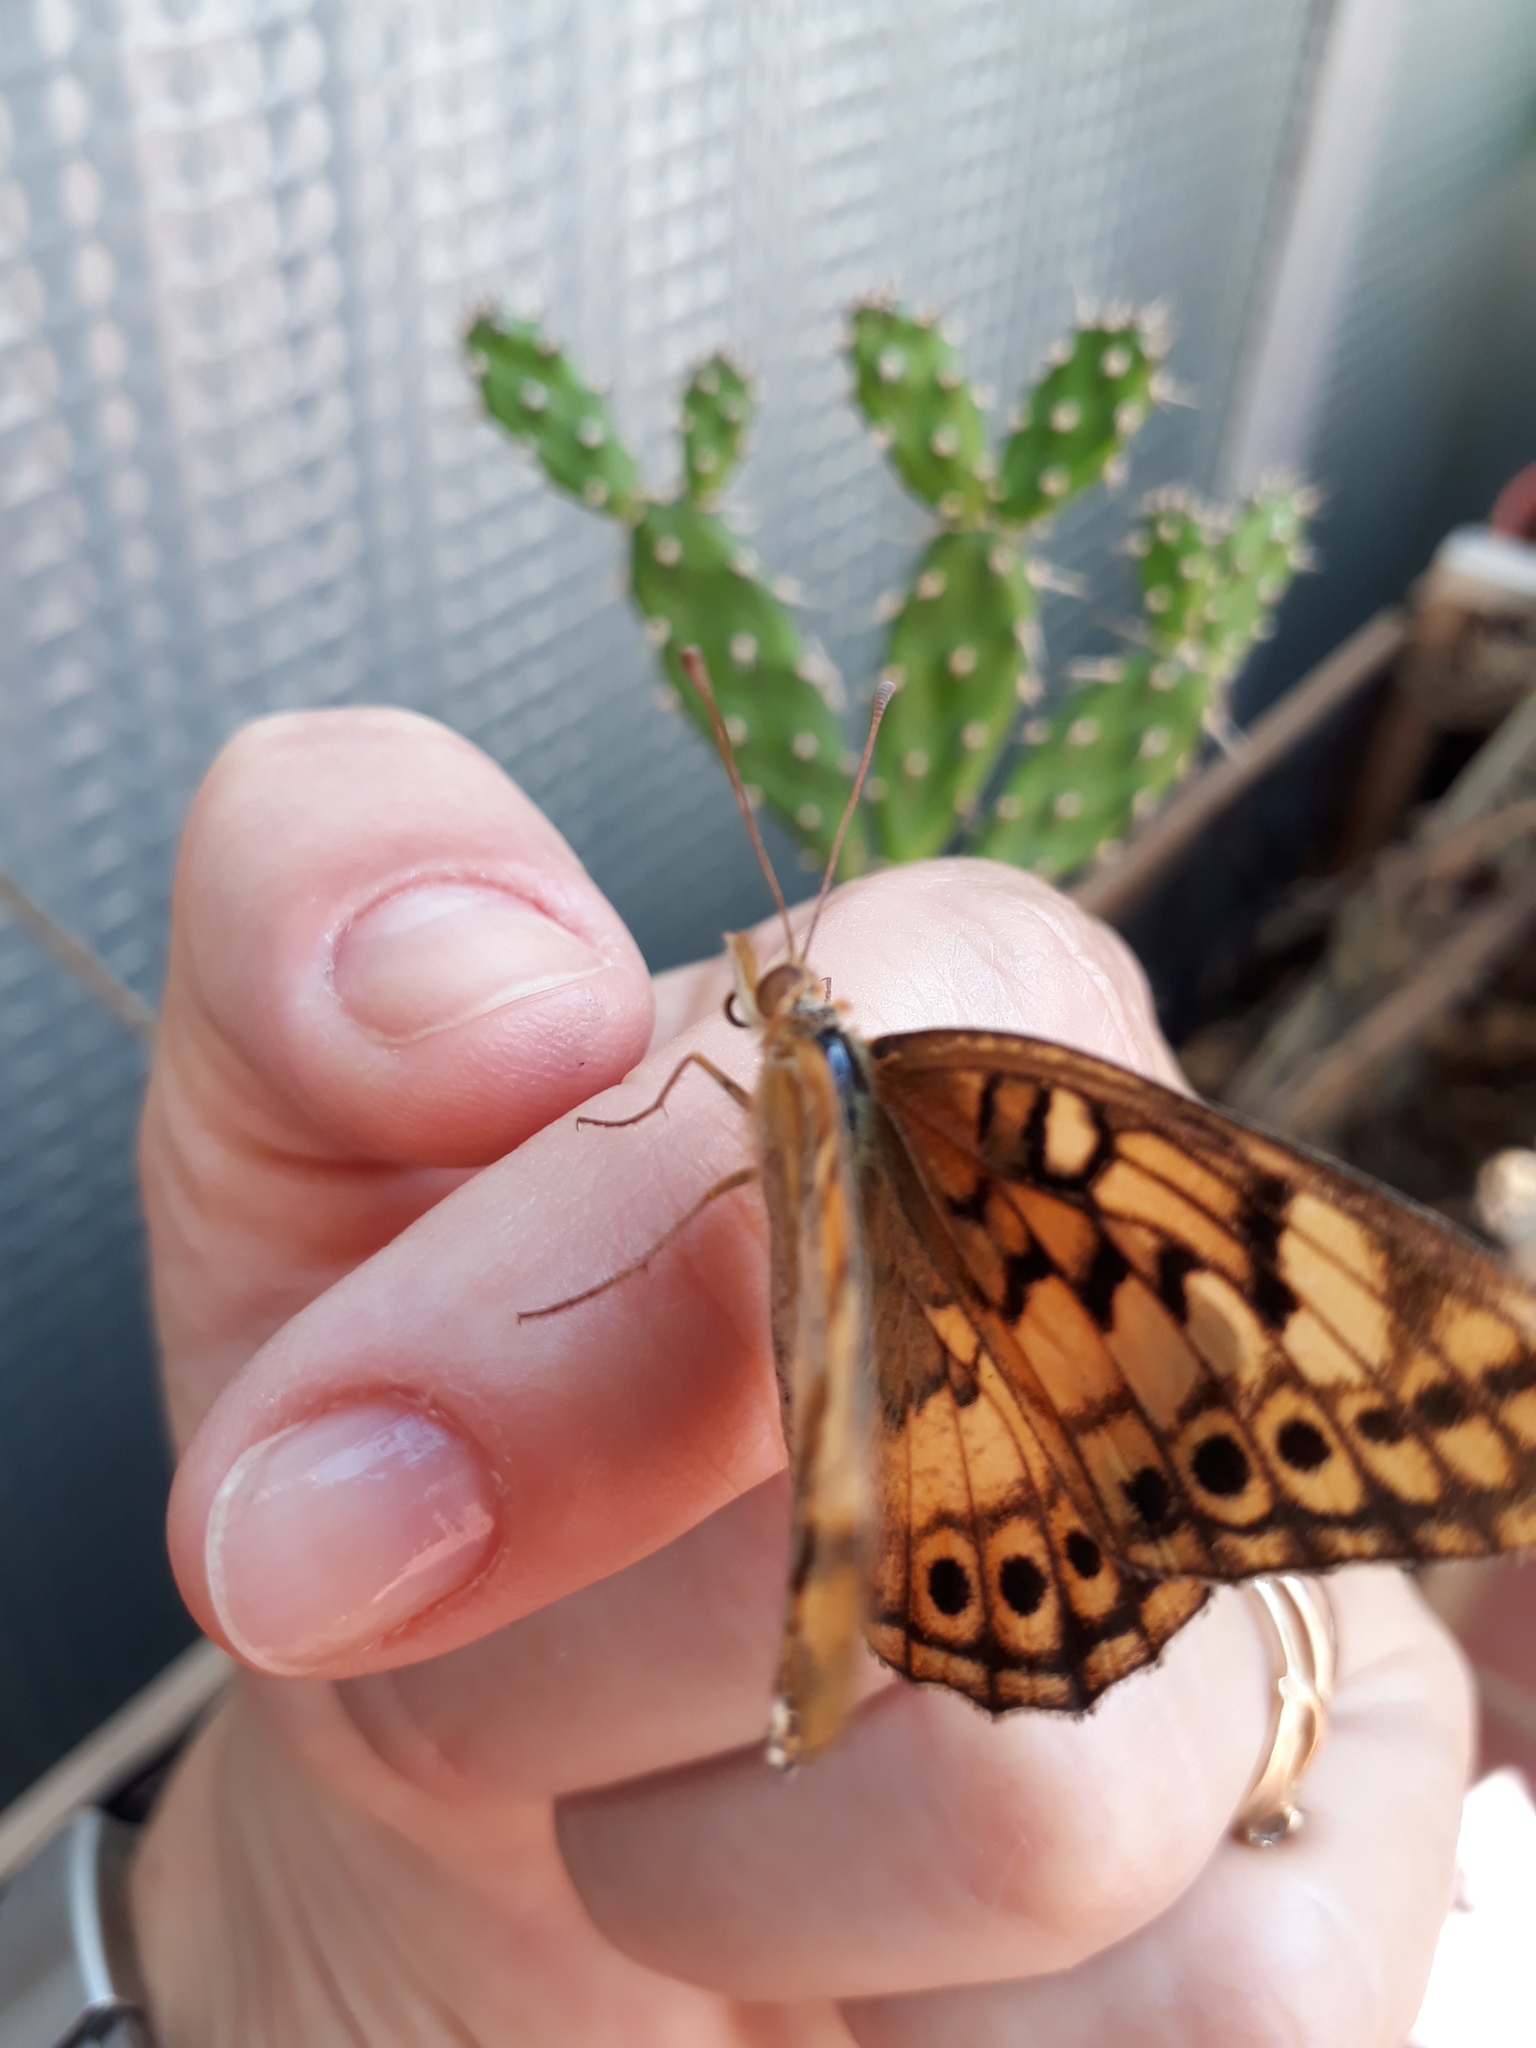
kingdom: Animalia
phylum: Arthropoda
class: Insecta
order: Lepidoptera
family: Nymphalidae
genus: Euptoieta
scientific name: Euptoieta hortensia
